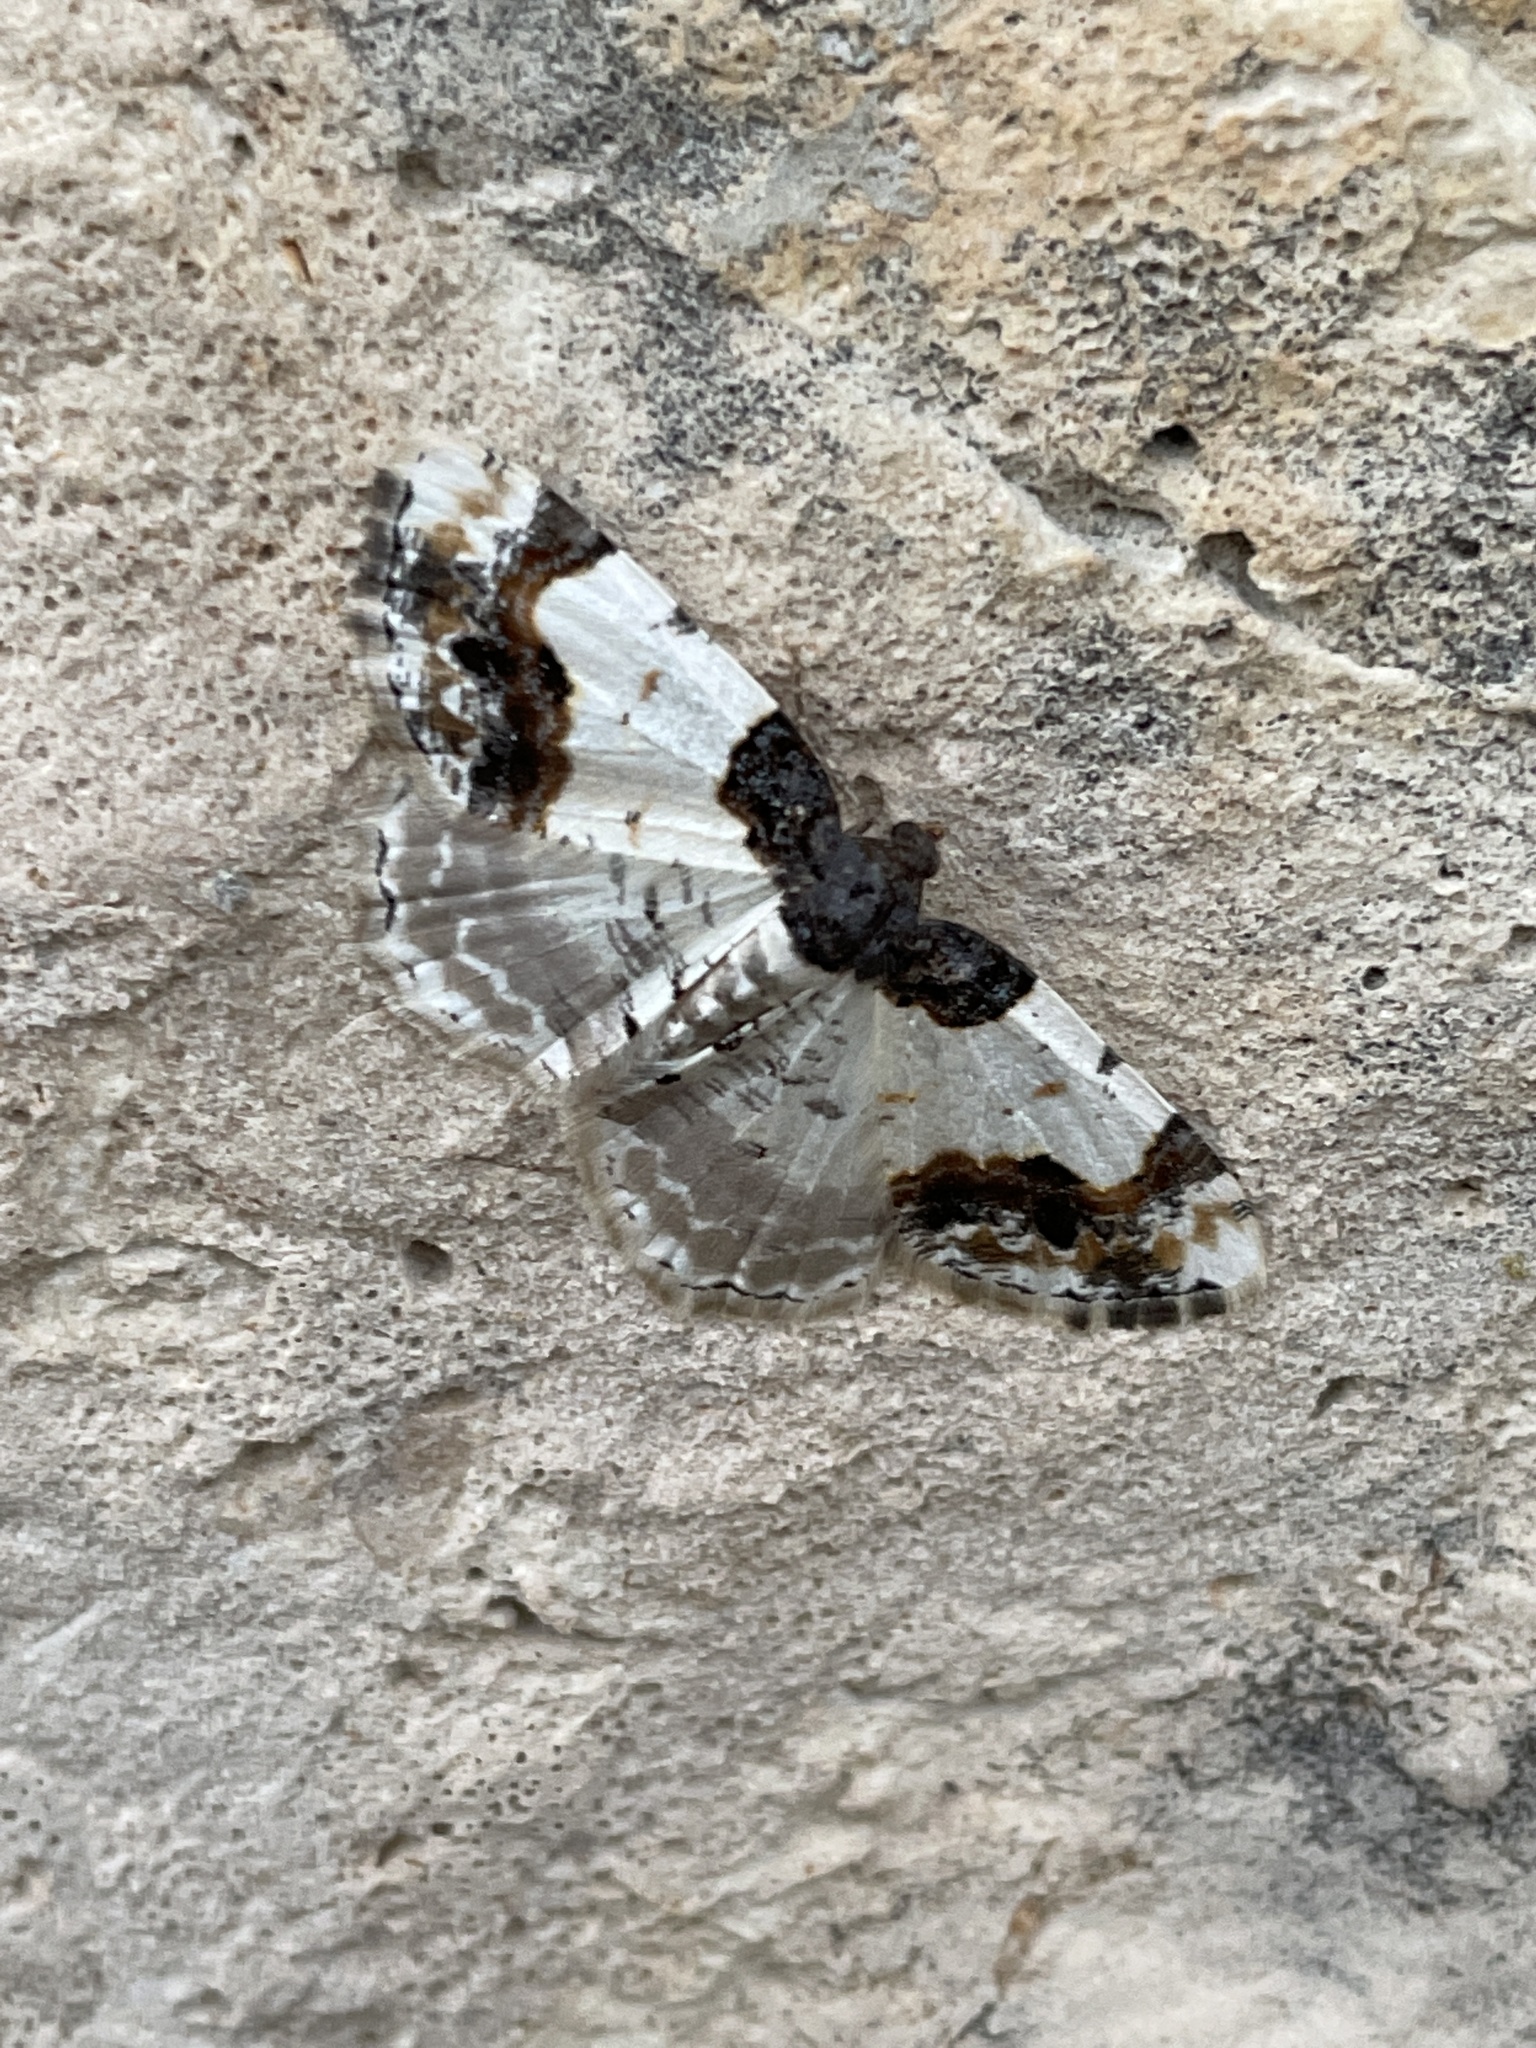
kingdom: Animalia
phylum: Arthropoda
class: Insecta
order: Lepidoptera
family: Geometridae
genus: Ligdia
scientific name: Ligdia adustata
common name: Scorched carpet
